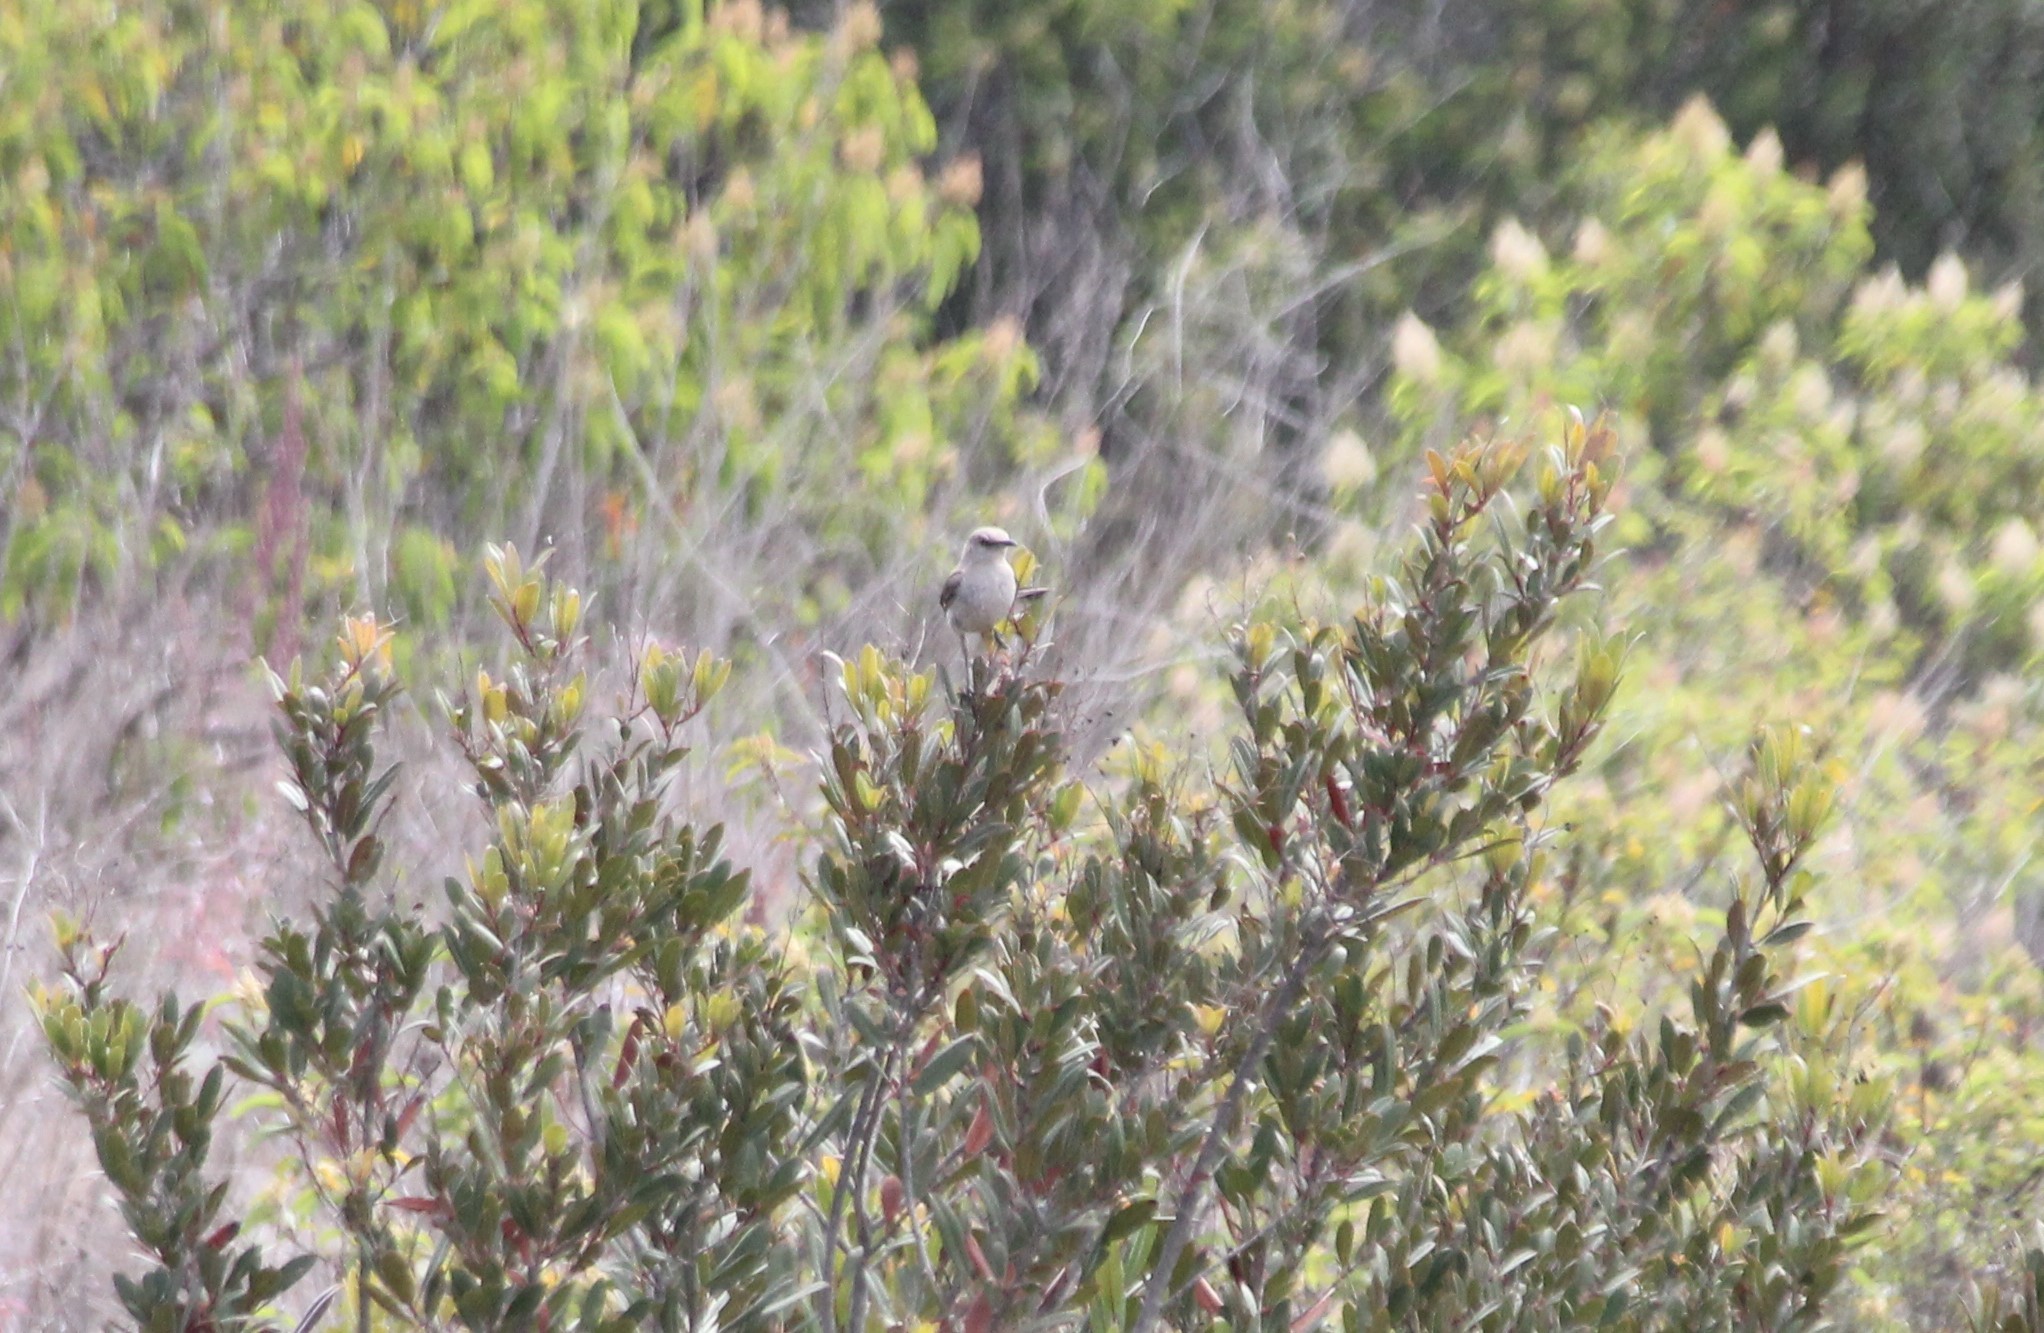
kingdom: Animalia
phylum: Chordata
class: Aves
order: Passeriformes
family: Mimidae
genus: Mimus
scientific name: Mimus polyglottos
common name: Northern mockingbird
